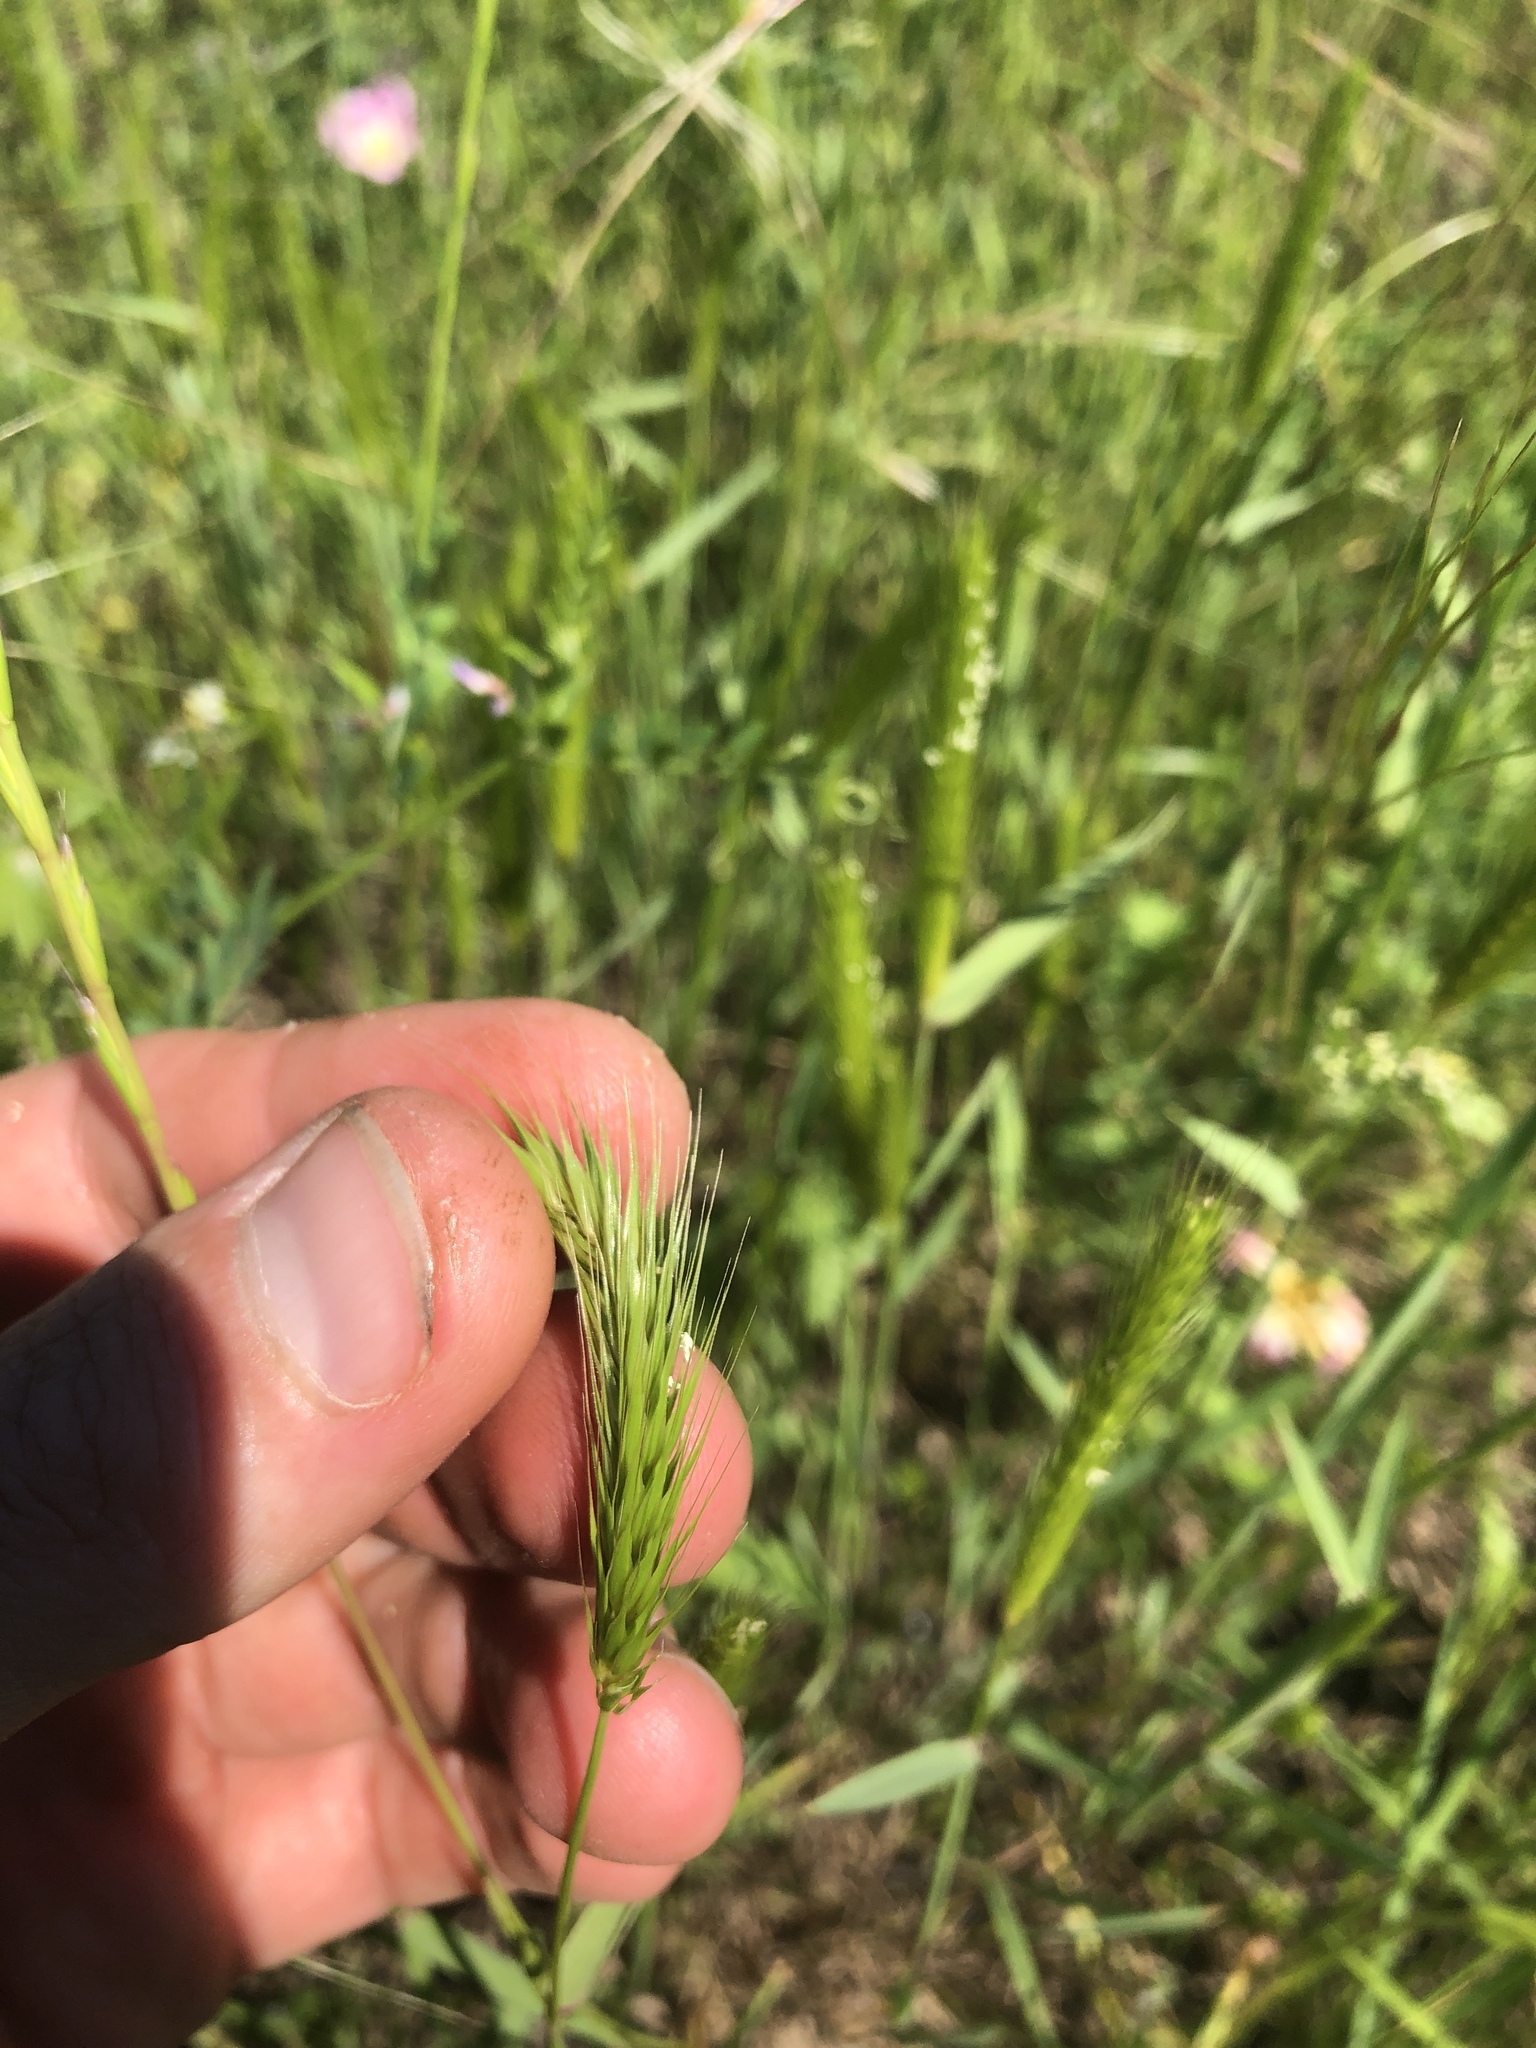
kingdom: Plantae
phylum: Tracheophyta
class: Liliopsida
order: Poales
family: Poaceae
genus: Hordeum
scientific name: Hordeum pusillum
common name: Little barley
